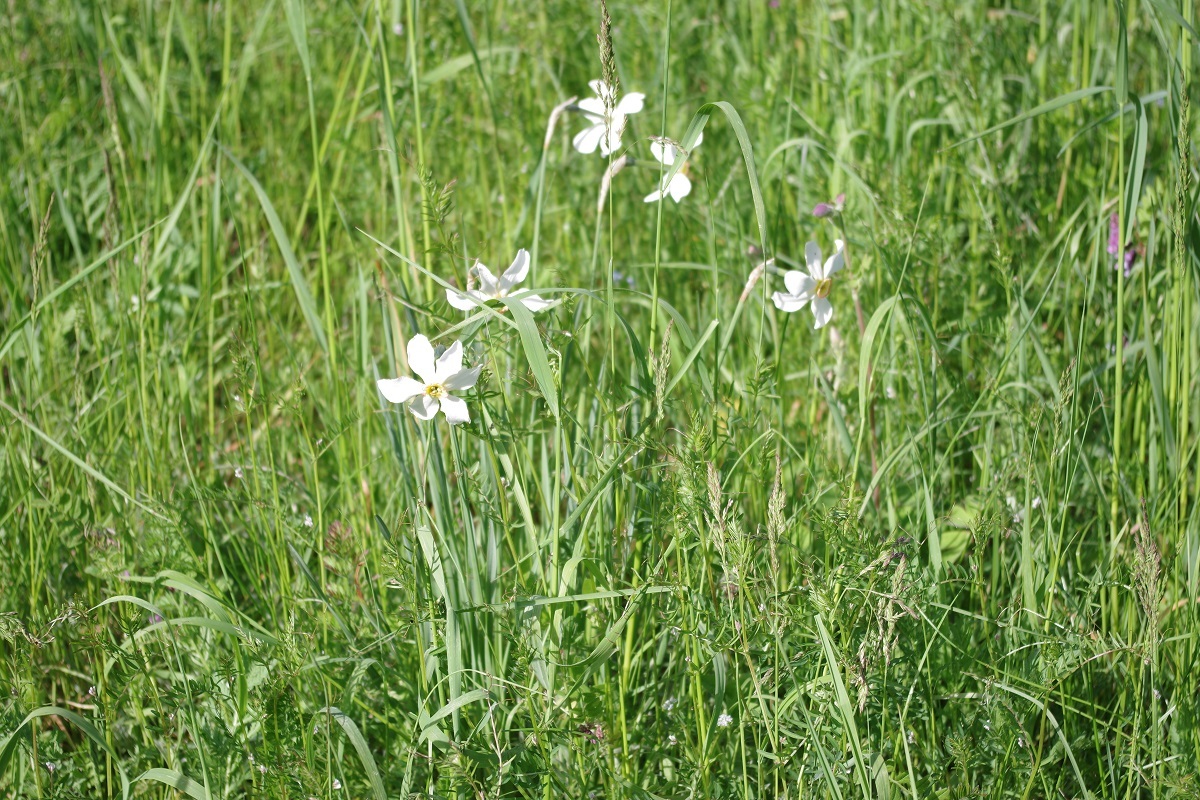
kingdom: Plantae
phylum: Tracheophyta
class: Liliopsida
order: Asparagales
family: Amaryllidaceae
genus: Narcissus
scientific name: Narcissus poeticus
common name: Pheasant's-eye daffodil
